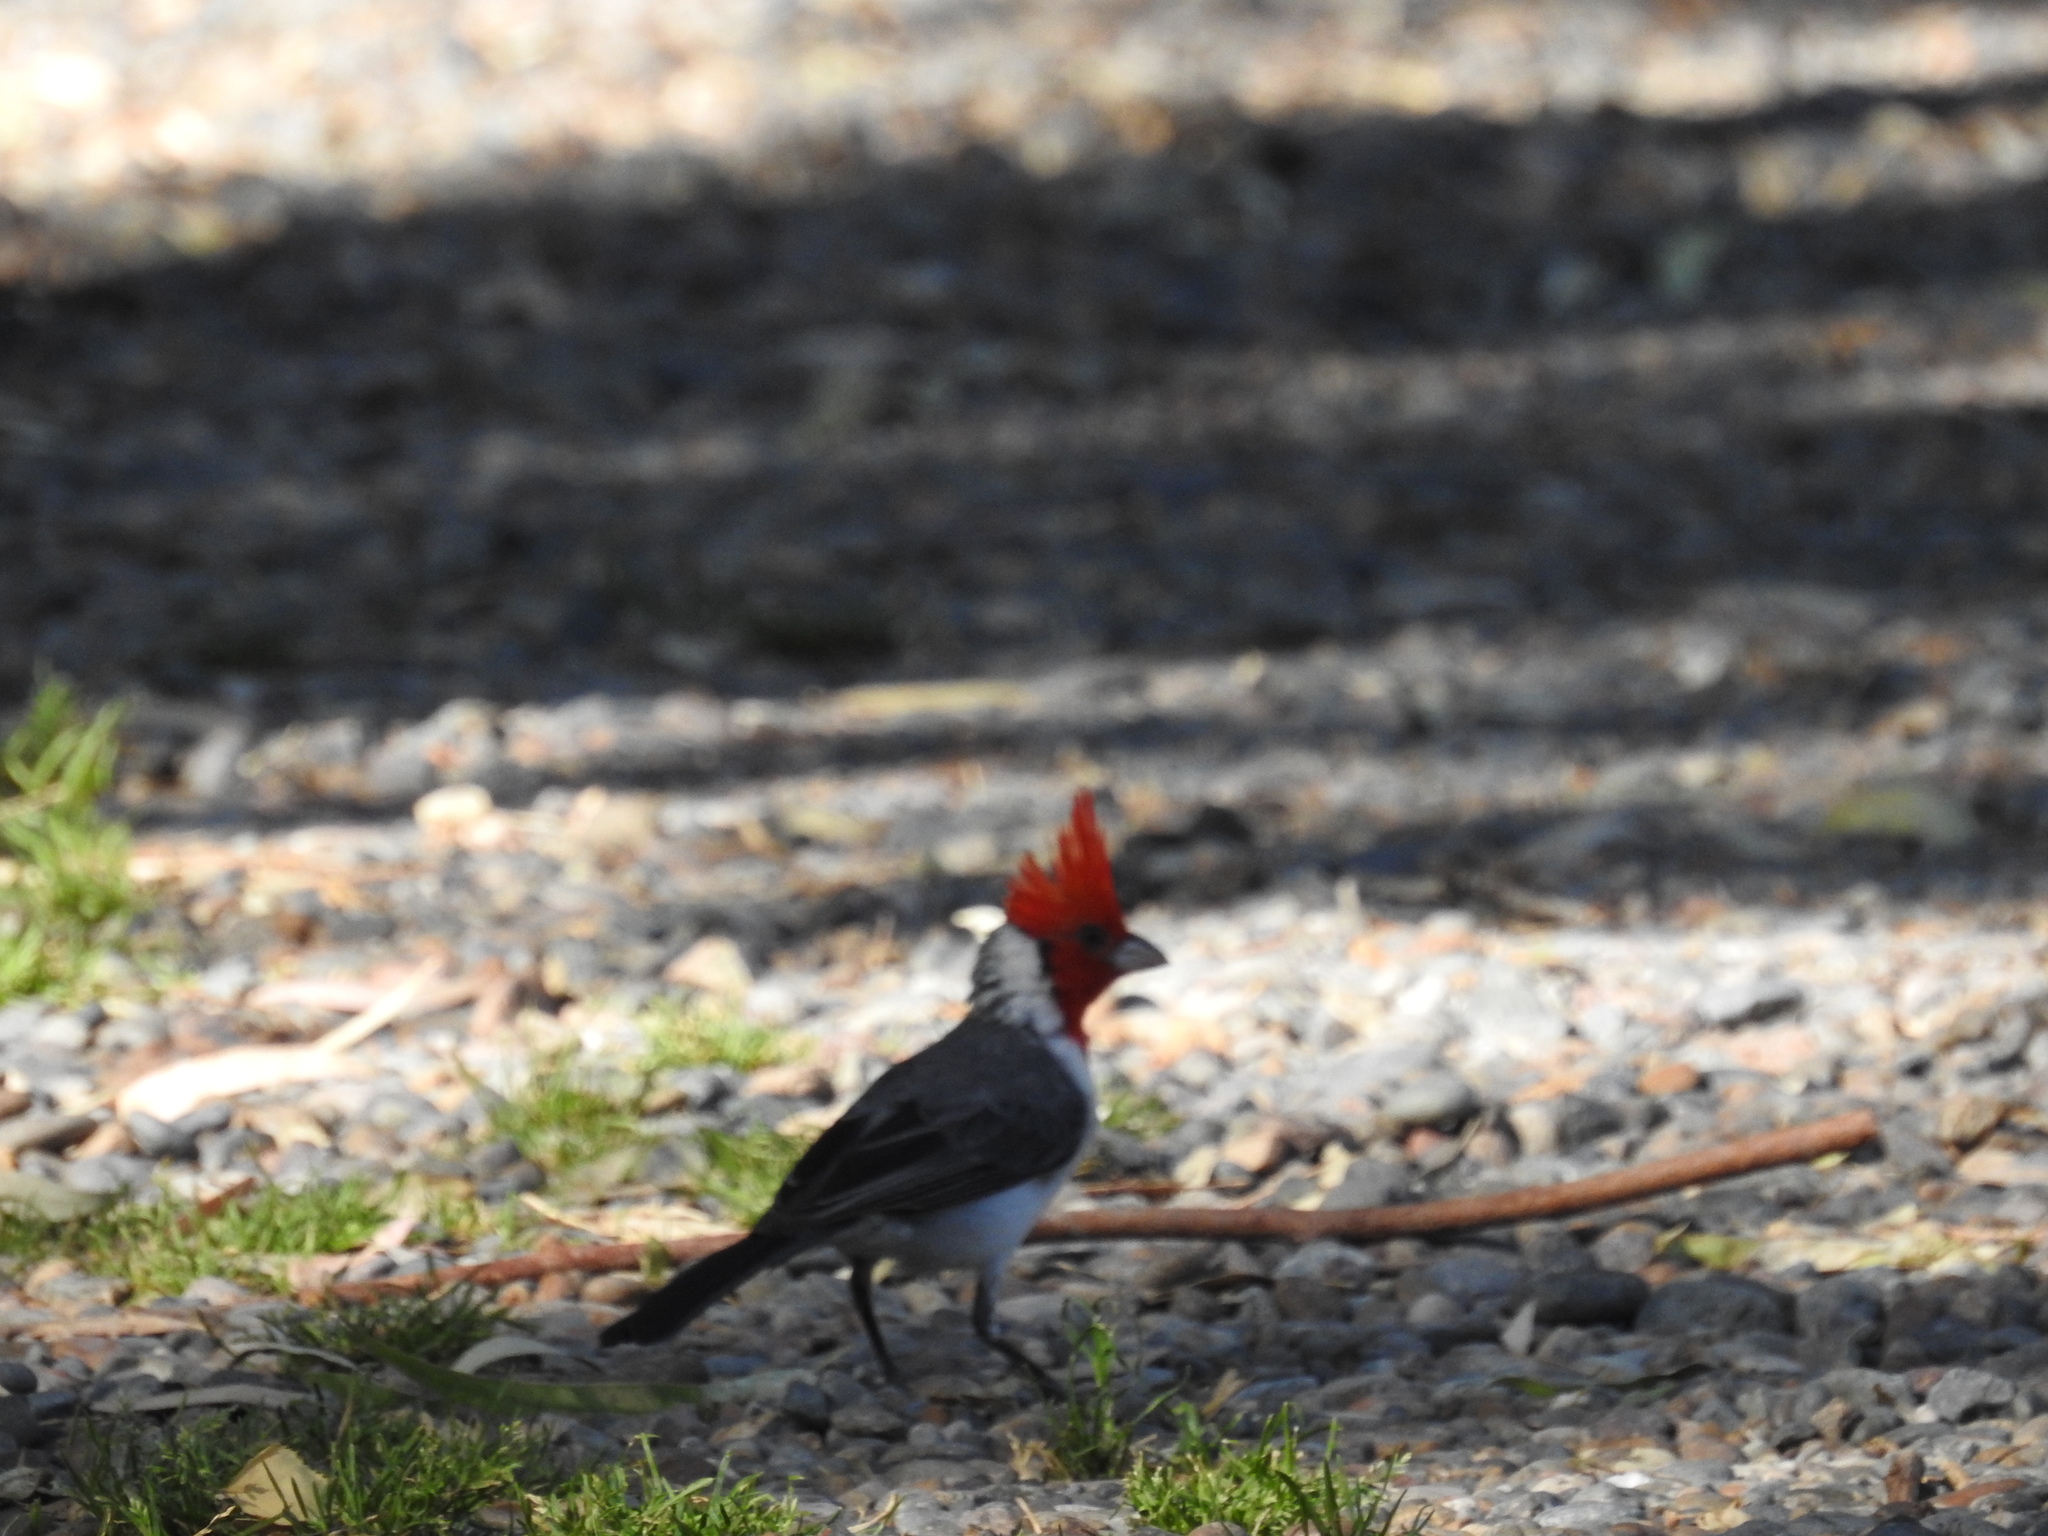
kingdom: Animalia
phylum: Chordata
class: Aves
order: Passeriformes
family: Thraupidae
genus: Paroaria
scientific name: Paroaria coronata
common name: Red-crested cardinal
